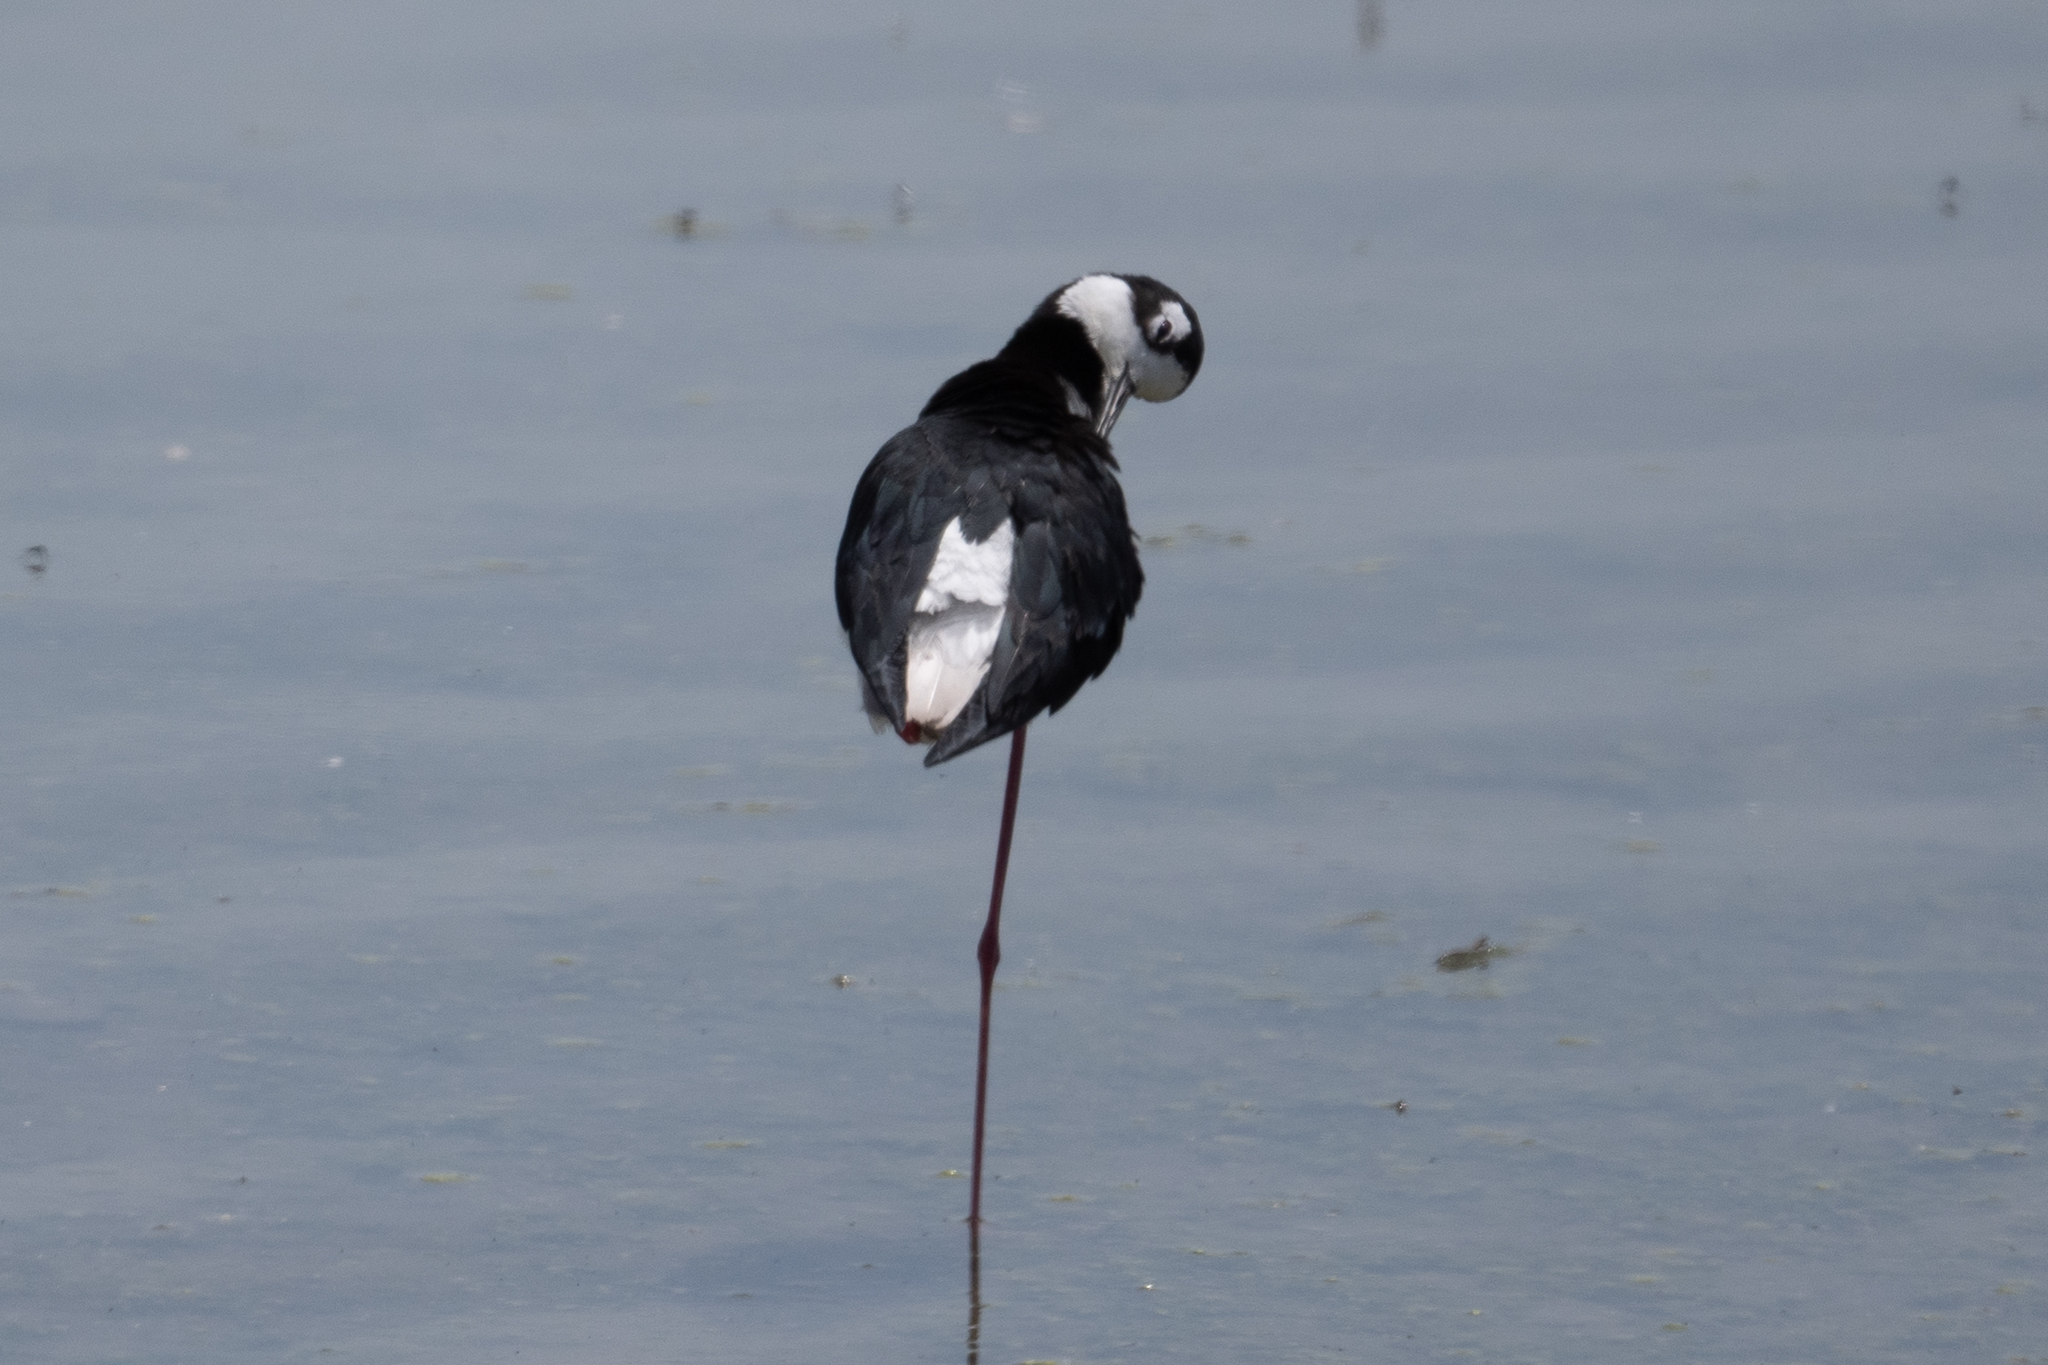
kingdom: Animalia
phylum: Chordata
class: Aves
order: Charadriiformes
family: Recurvirostridae
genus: Himantopus
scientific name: Himantopus mexicanus
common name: Black-necked stilt
